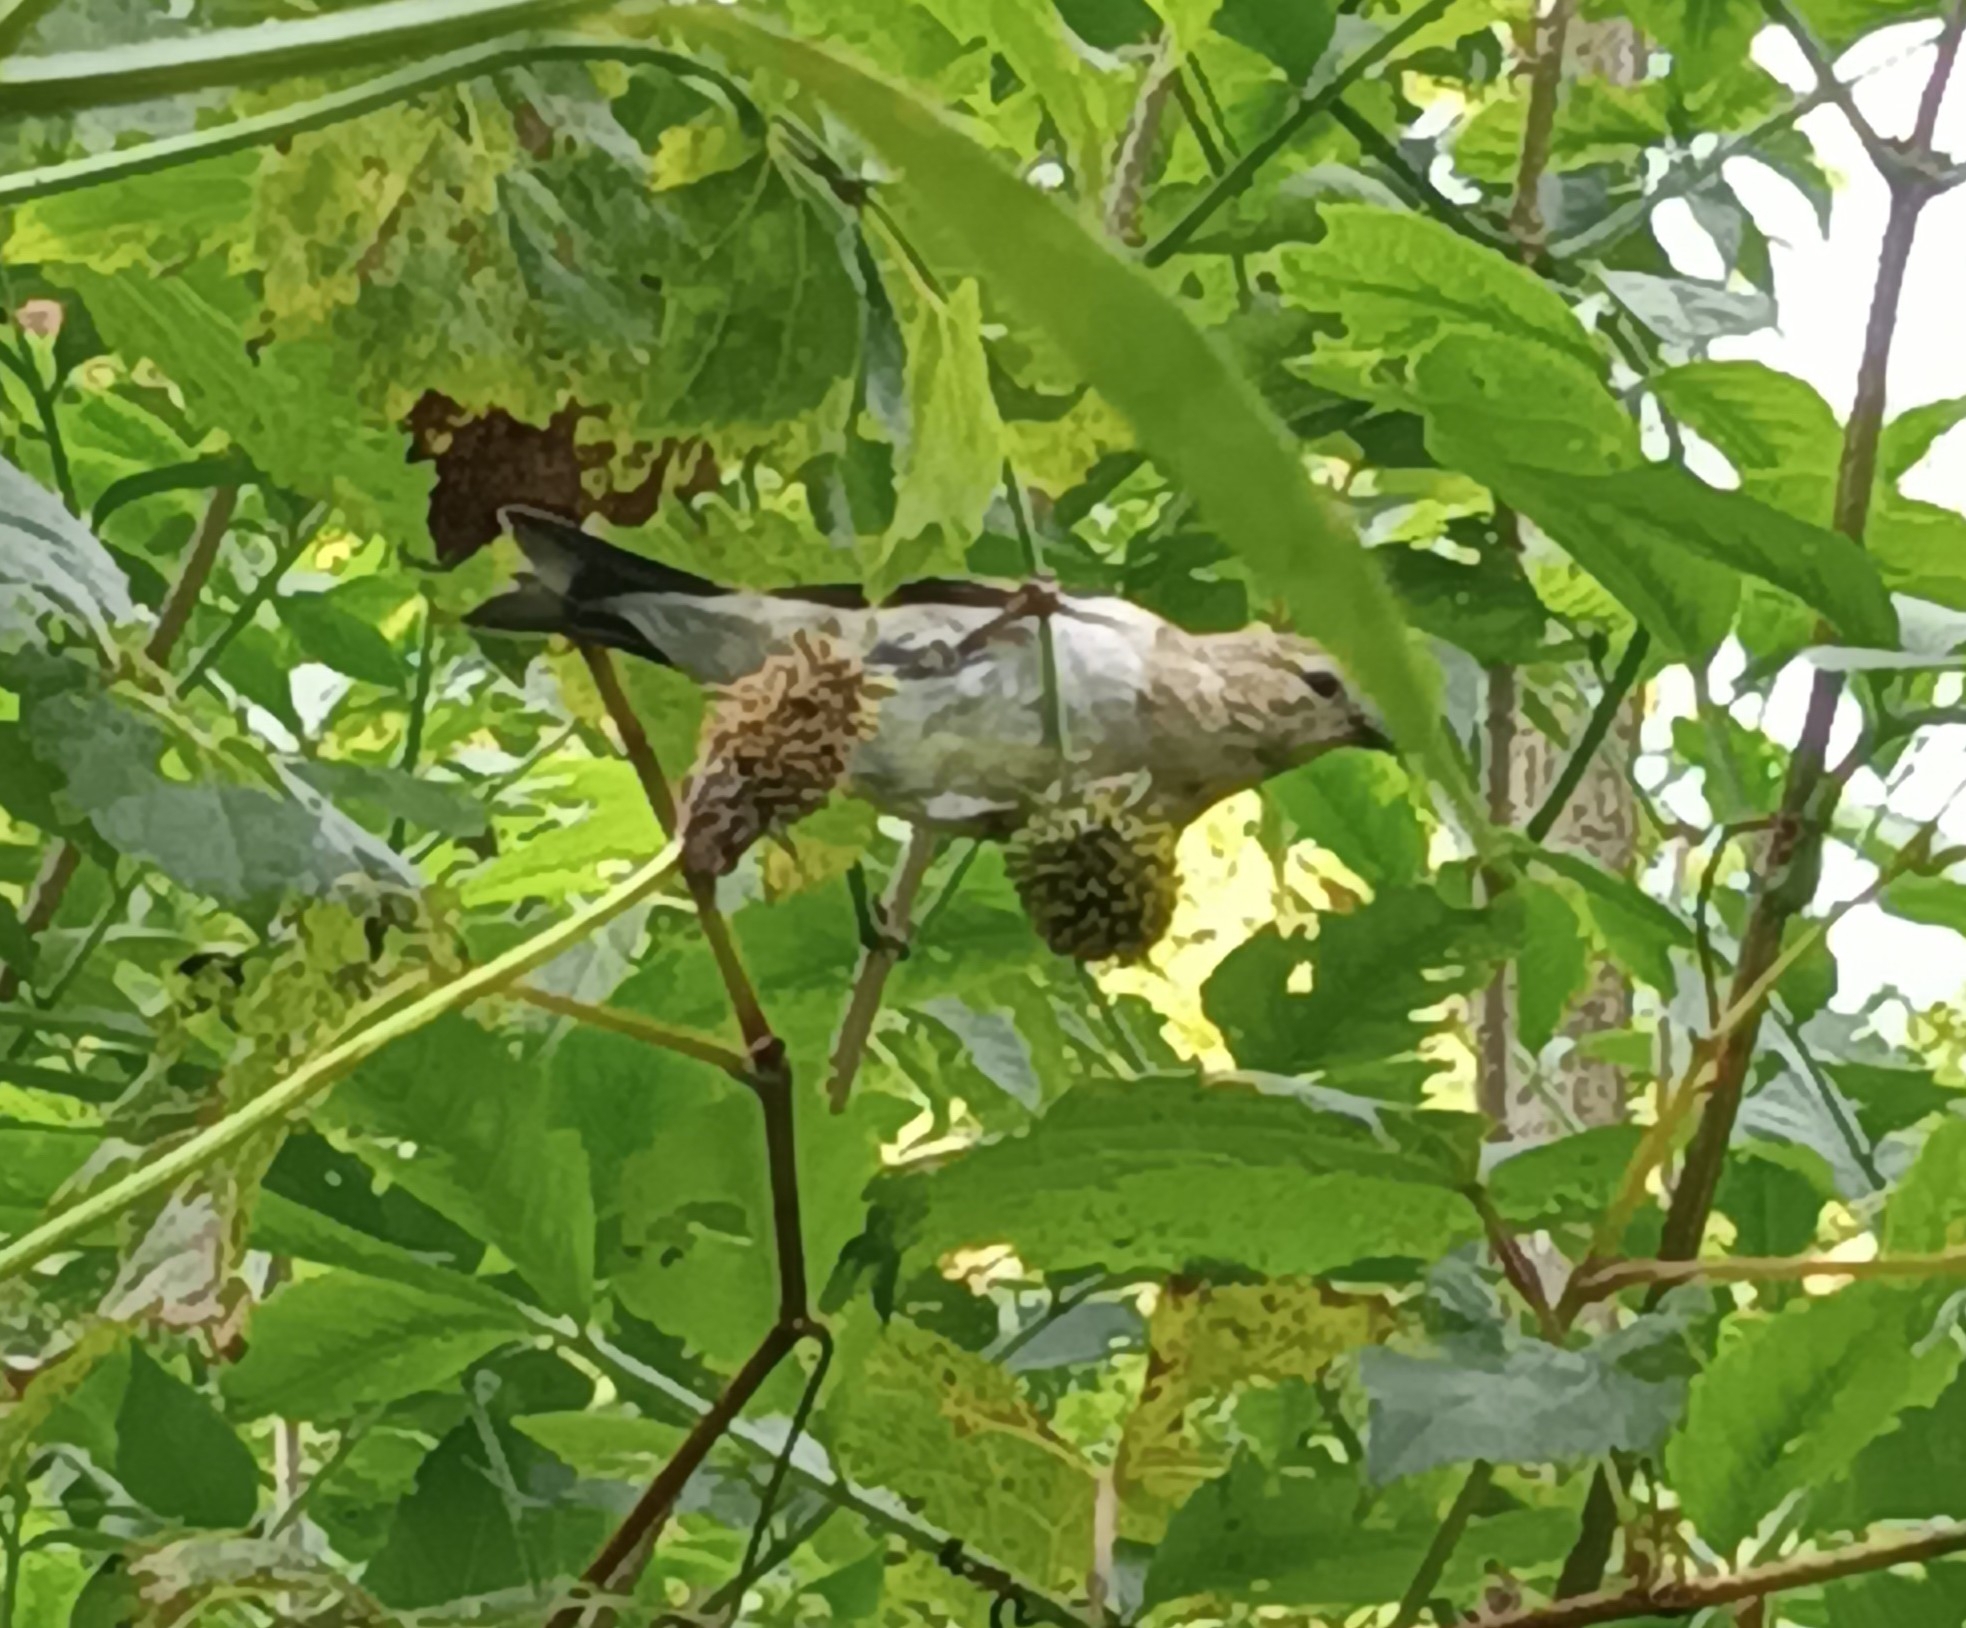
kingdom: Animalia
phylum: Chordata
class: Aves
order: Passeriformes
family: Fringillidae
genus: Spinus
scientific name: Spinus tristis
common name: American goldfinch
